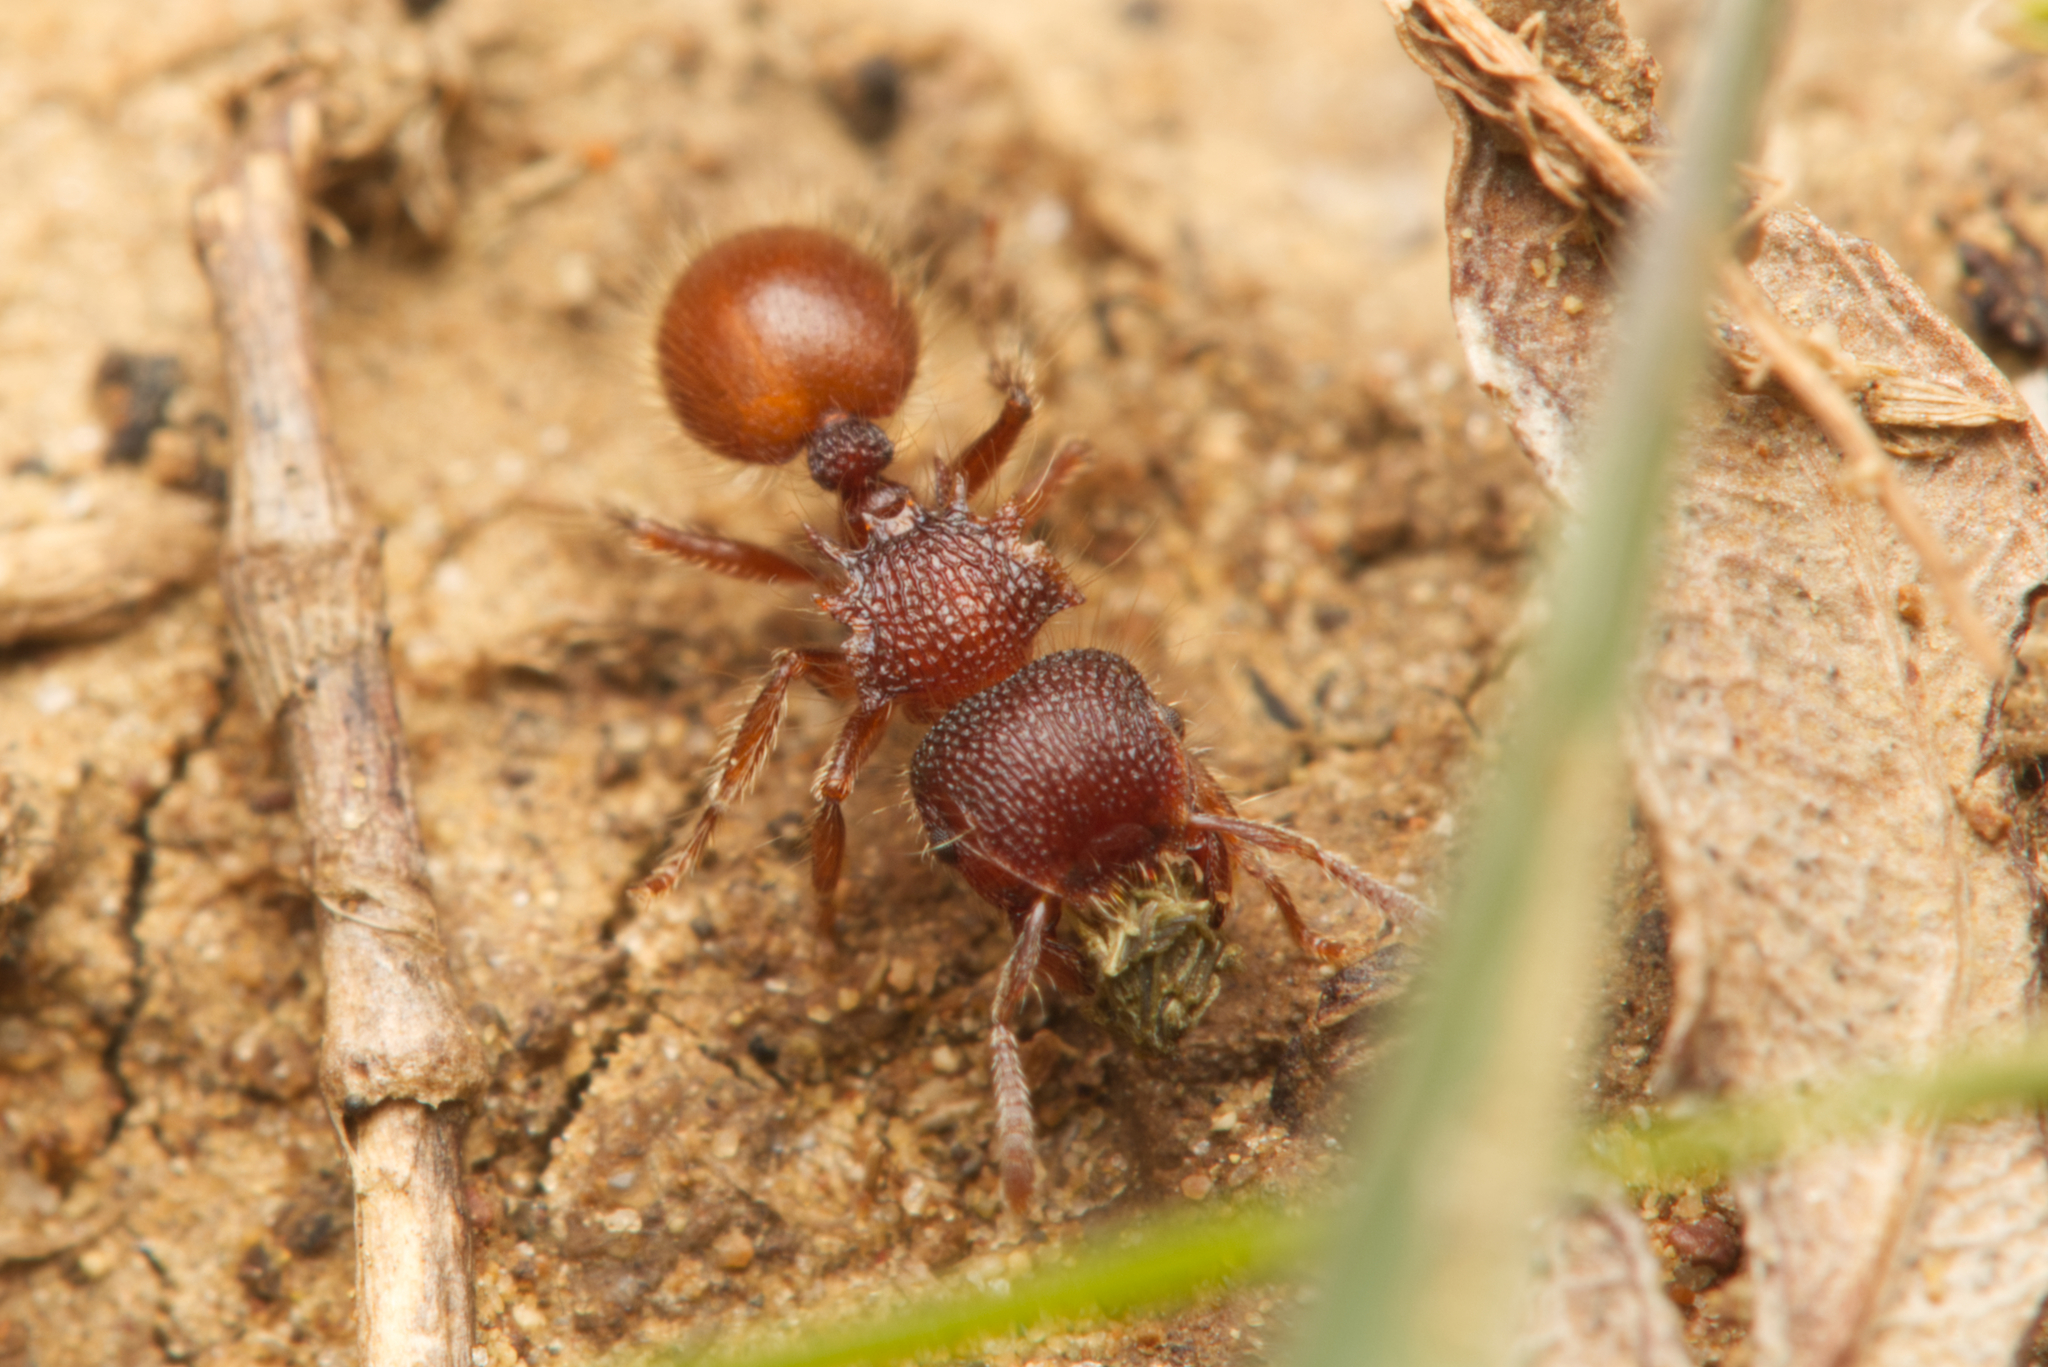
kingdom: Animalia
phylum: Arthropoda
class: Insecta
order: Hymenoptera
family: Formicidae
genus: Meranoplus
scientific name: Meranoplus wilsoni
